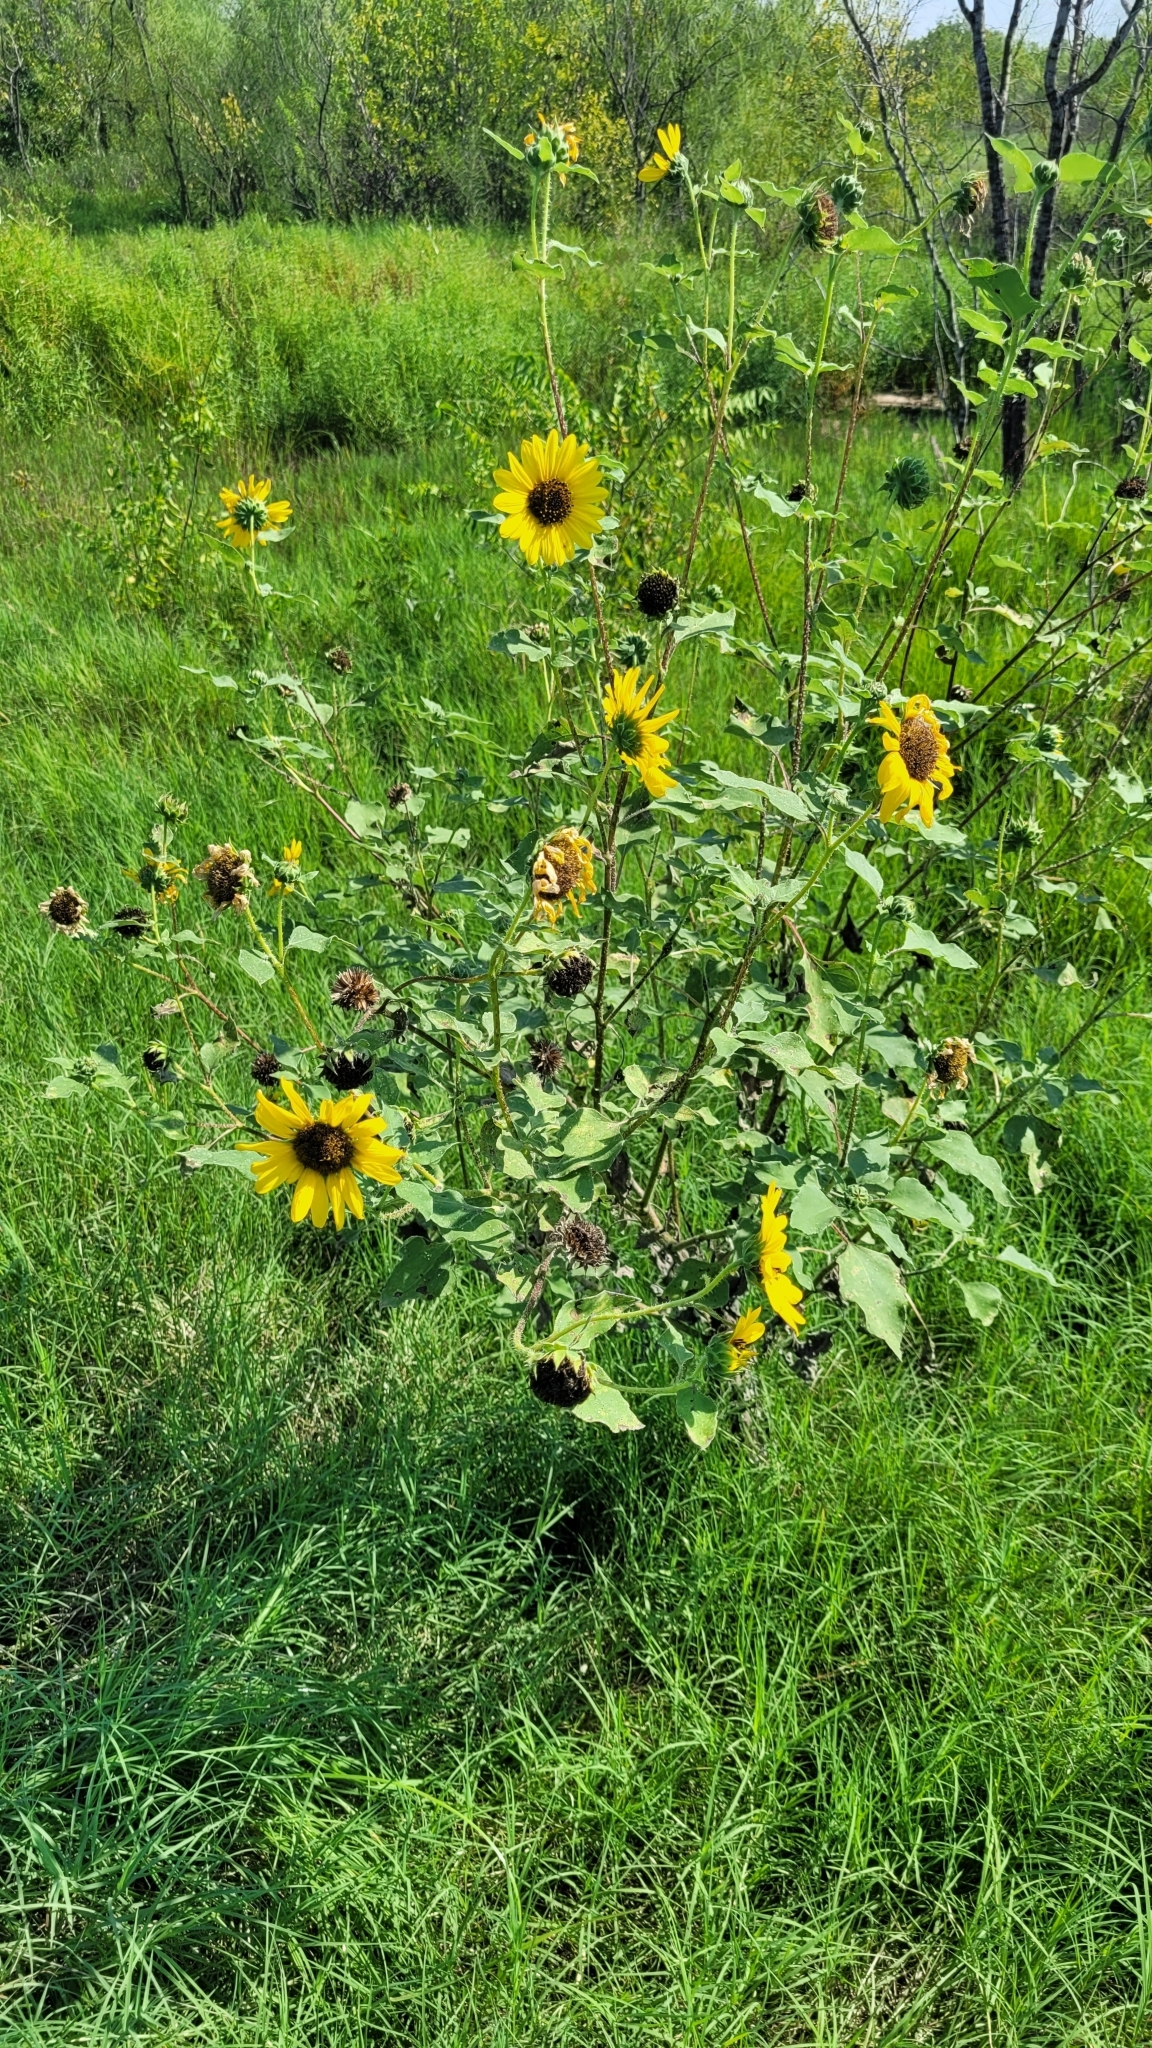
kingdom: Plantae
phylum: Tracheophyta
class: Magnoliopsida
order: Asterales
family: Asteraceae
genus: Helianthus
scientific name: Helianthus annuus
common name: Sunflower
